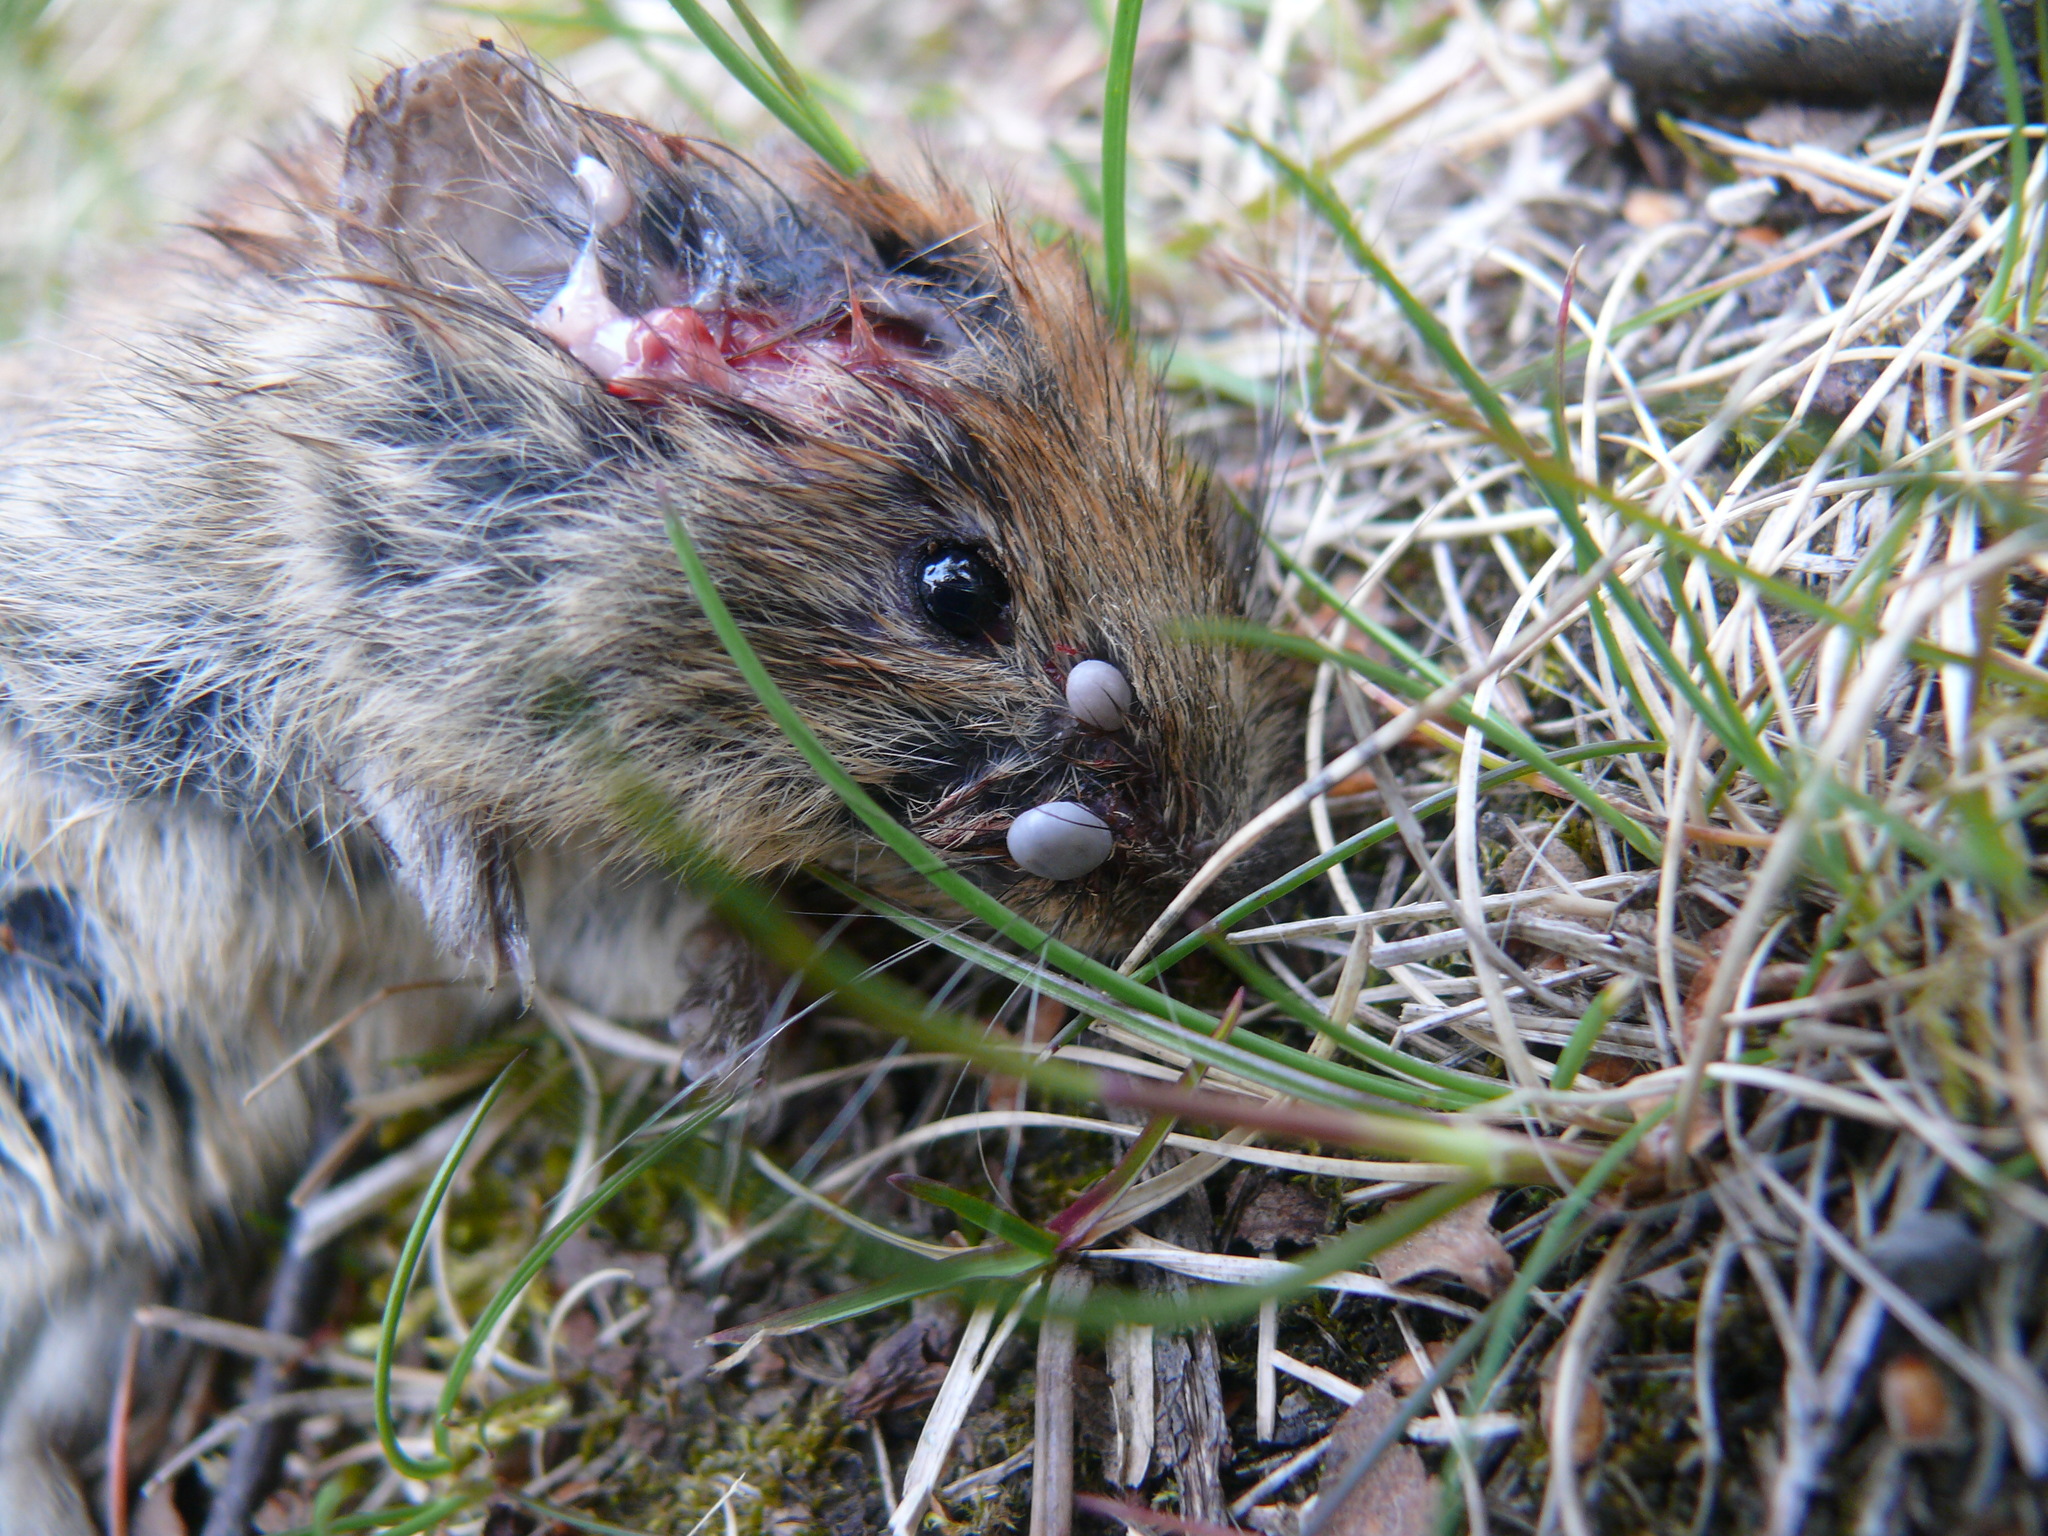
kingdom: Animalia
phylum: Arthropoda
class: Arachnida
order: Ixodida
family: Ixodidae
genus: Ixodes
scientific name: Ixodes angustus
